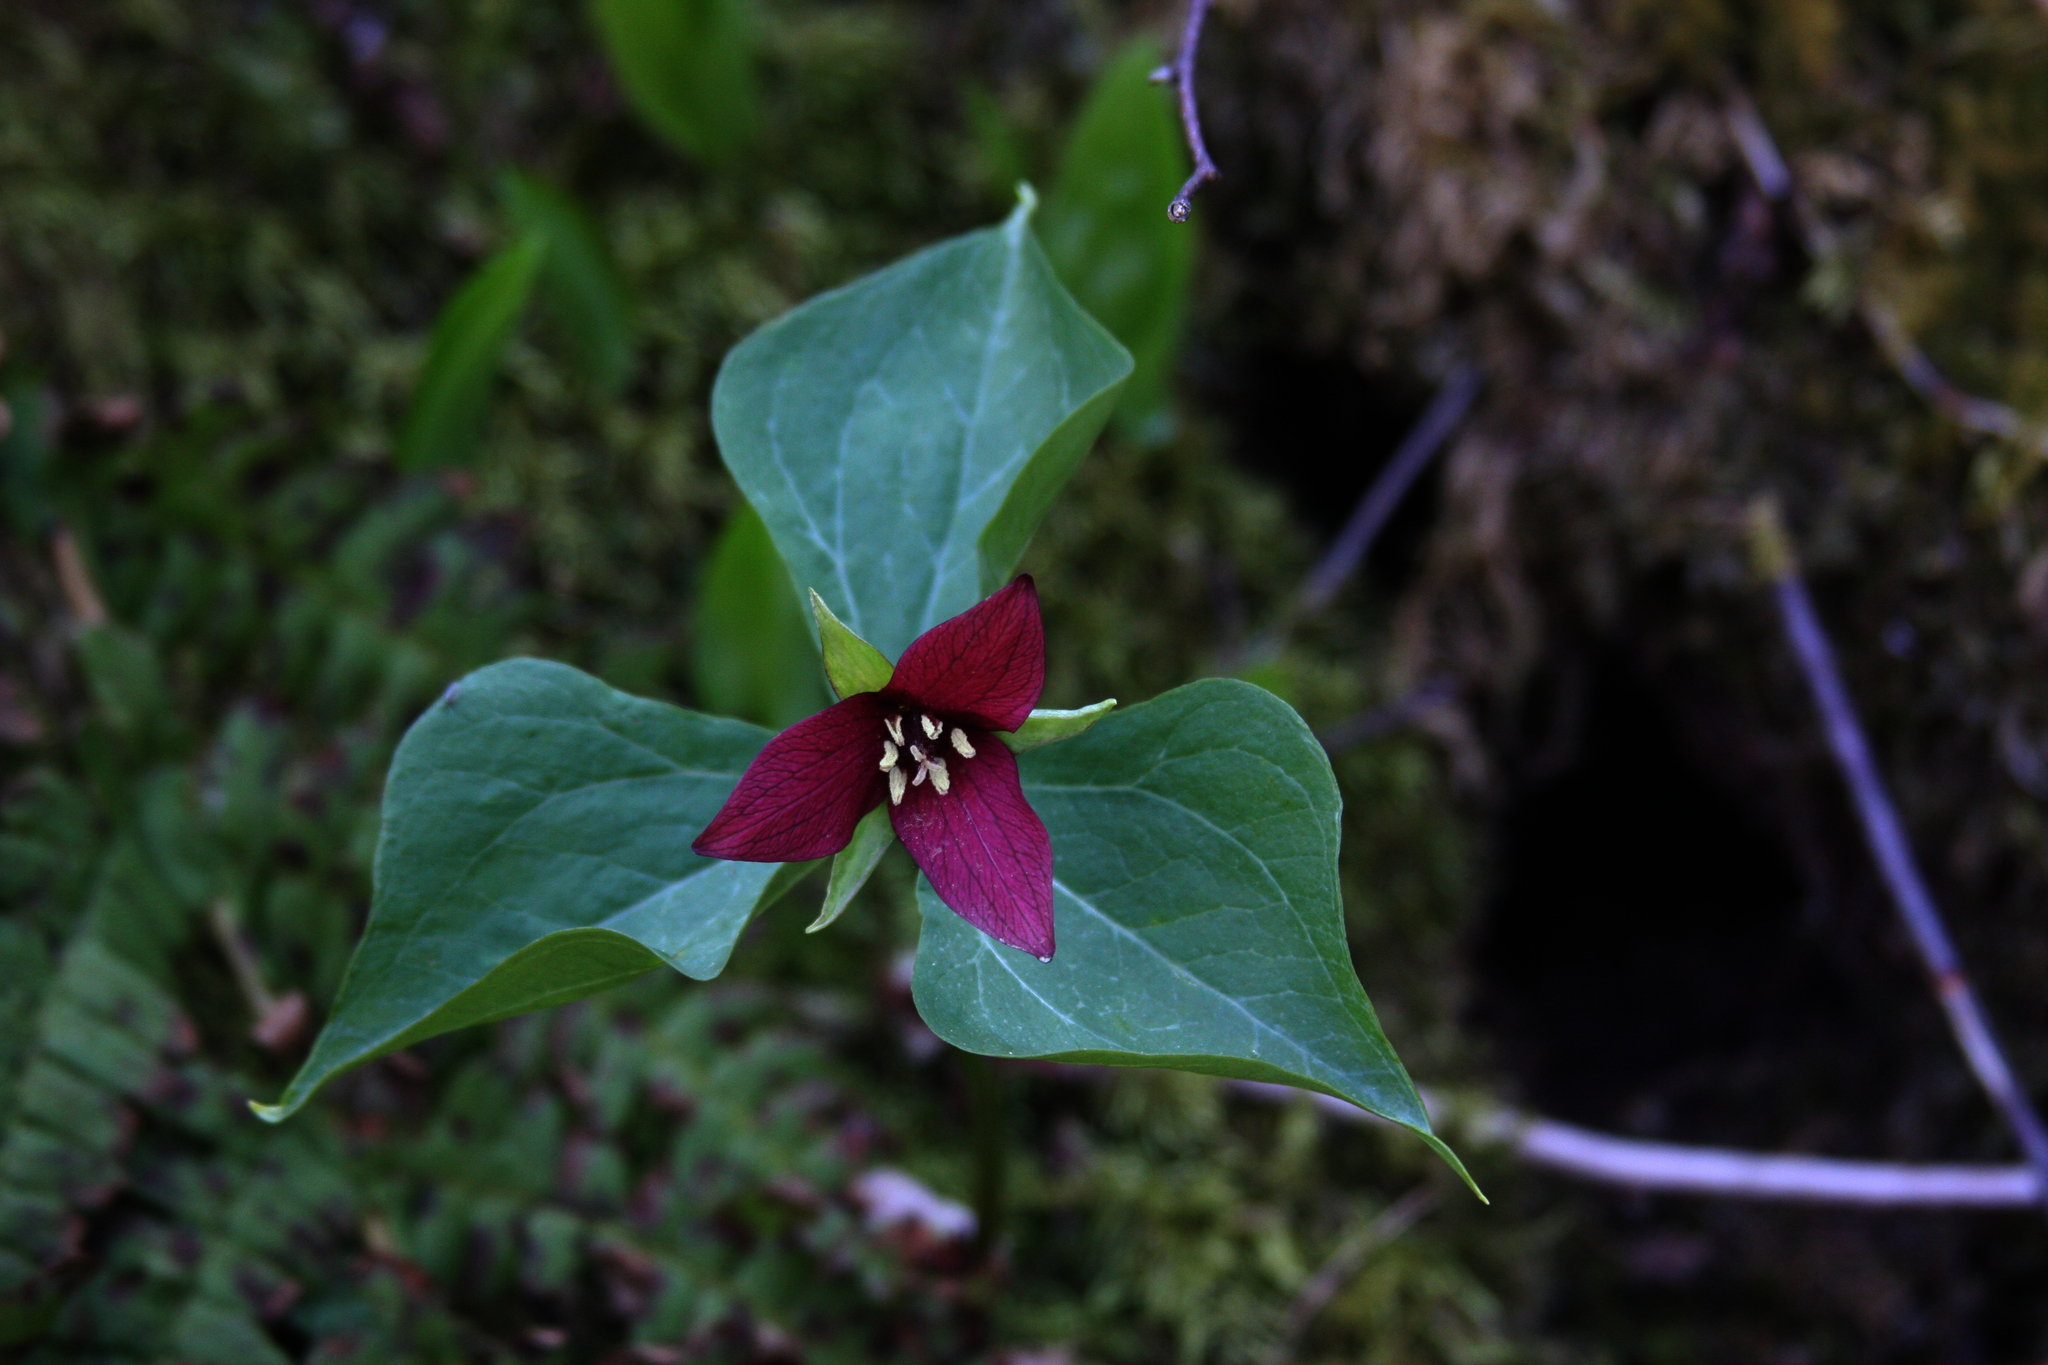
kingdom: Plantae
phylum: Tracheophyta
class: Liliopsida
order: Liliales
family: Melanthiaceae
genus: Trillium
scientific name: Trillium erectum
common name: Purple trillium
